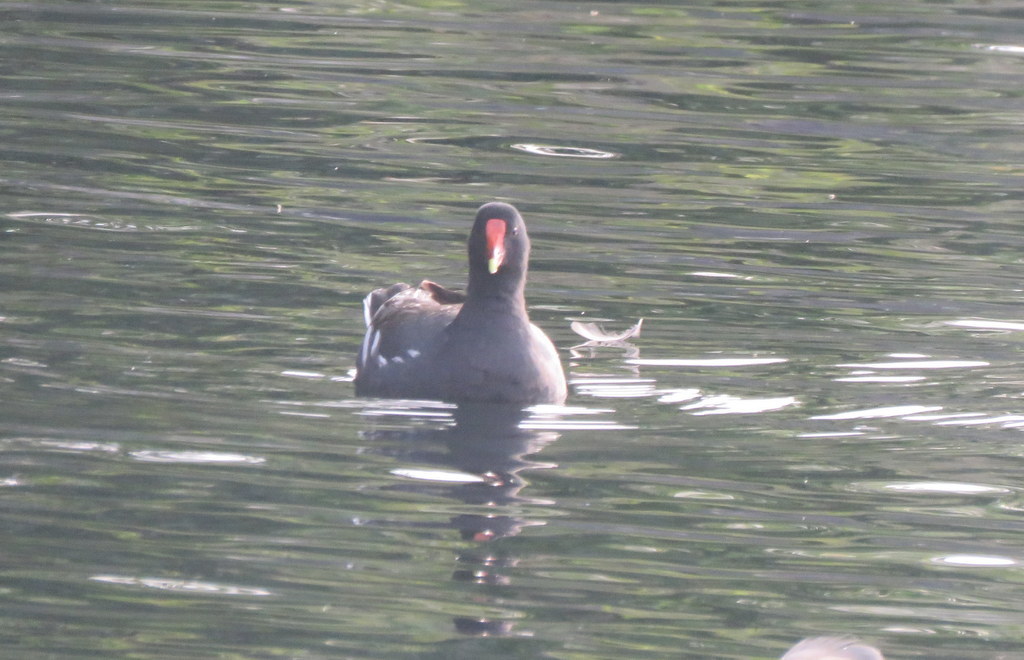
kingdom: Animalia
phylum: Chordata
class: Aves
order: Gruiformes
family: Rallidae
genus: Gallinula
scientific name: Gallinula chloropus
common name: Common moorhen
